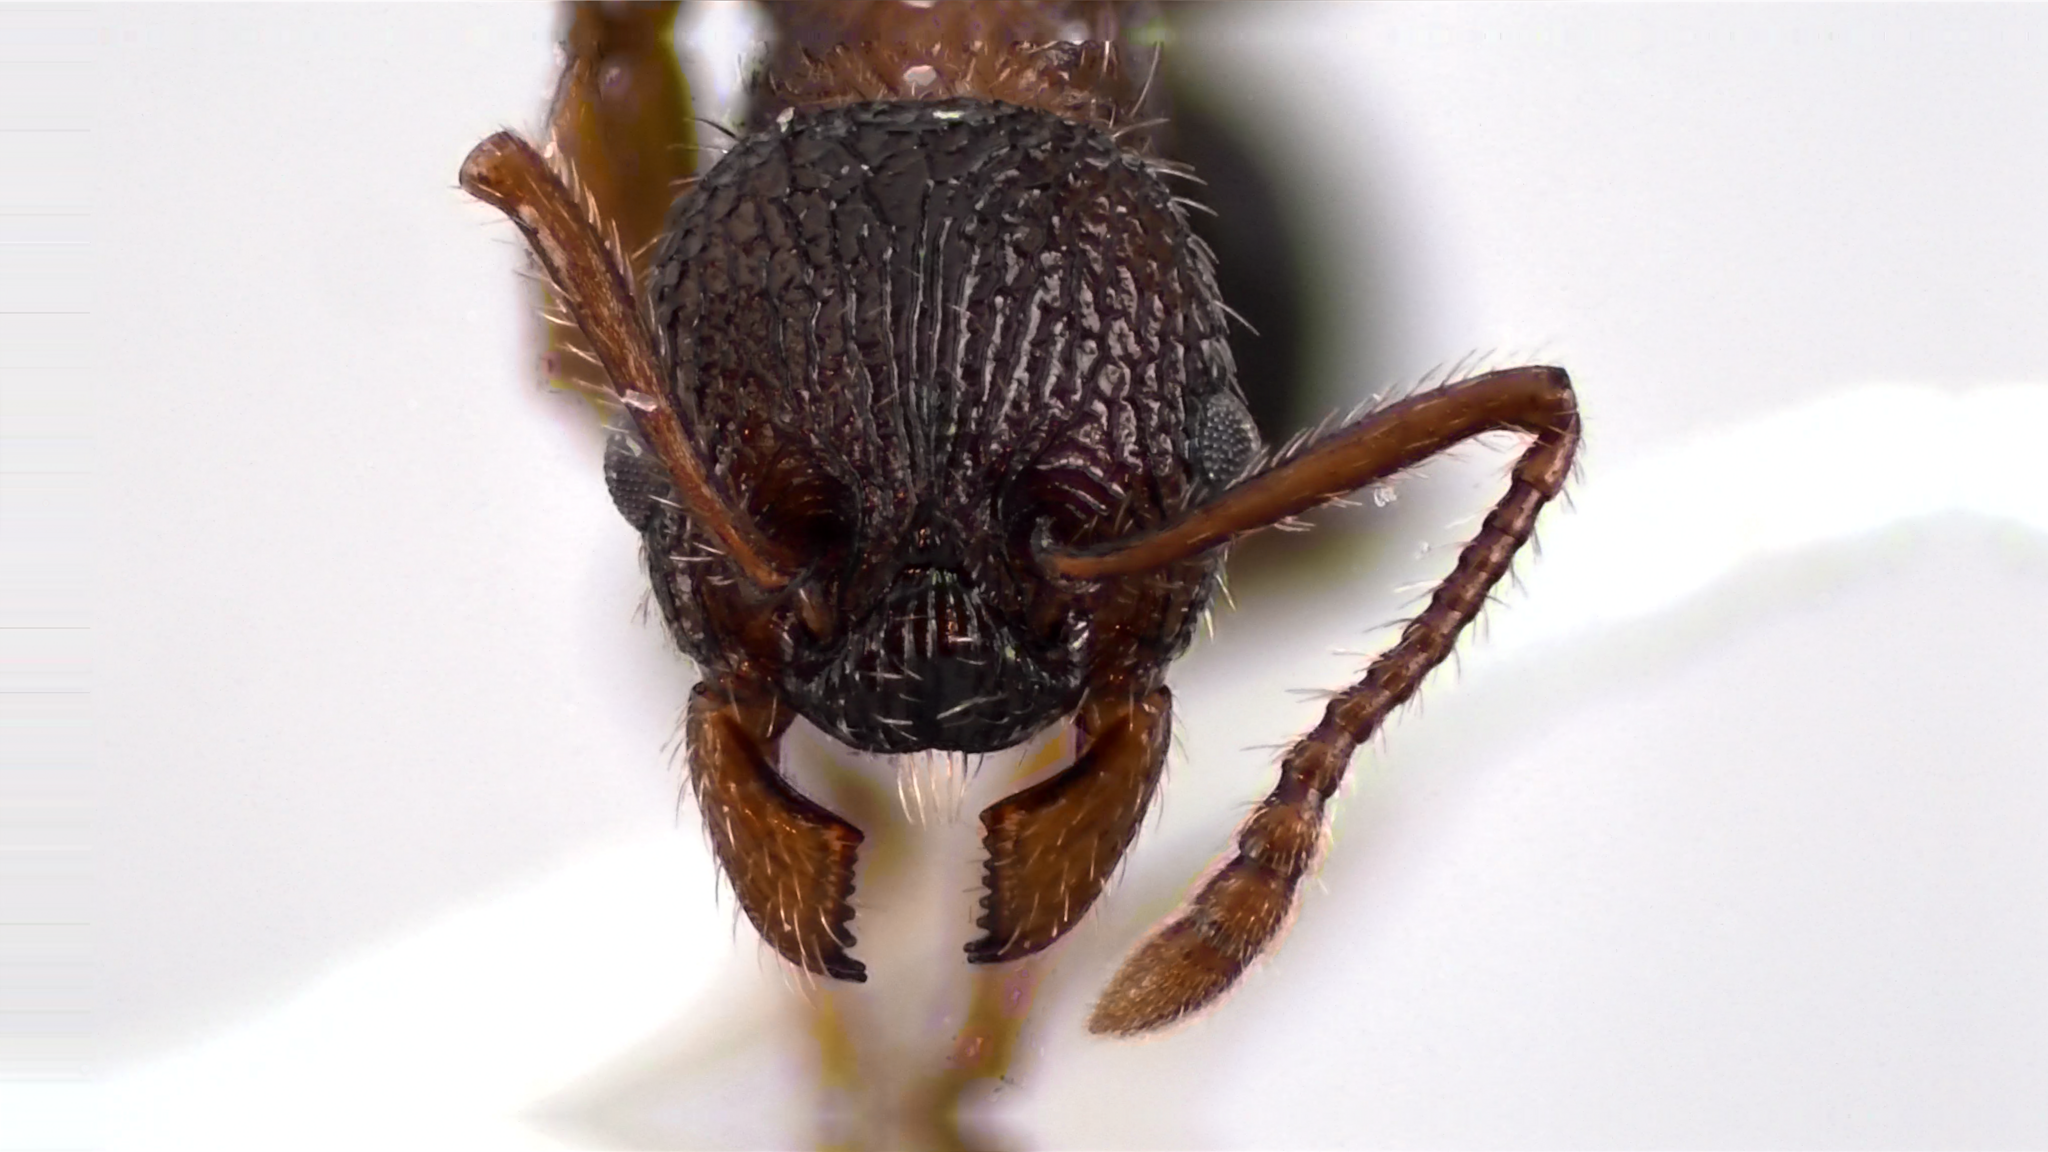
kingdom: Animalia
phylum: Arthropoda
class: Insecta
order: Hymenoptera
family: Formicidae
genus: Myrmica
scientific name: Myrmica spatulata
